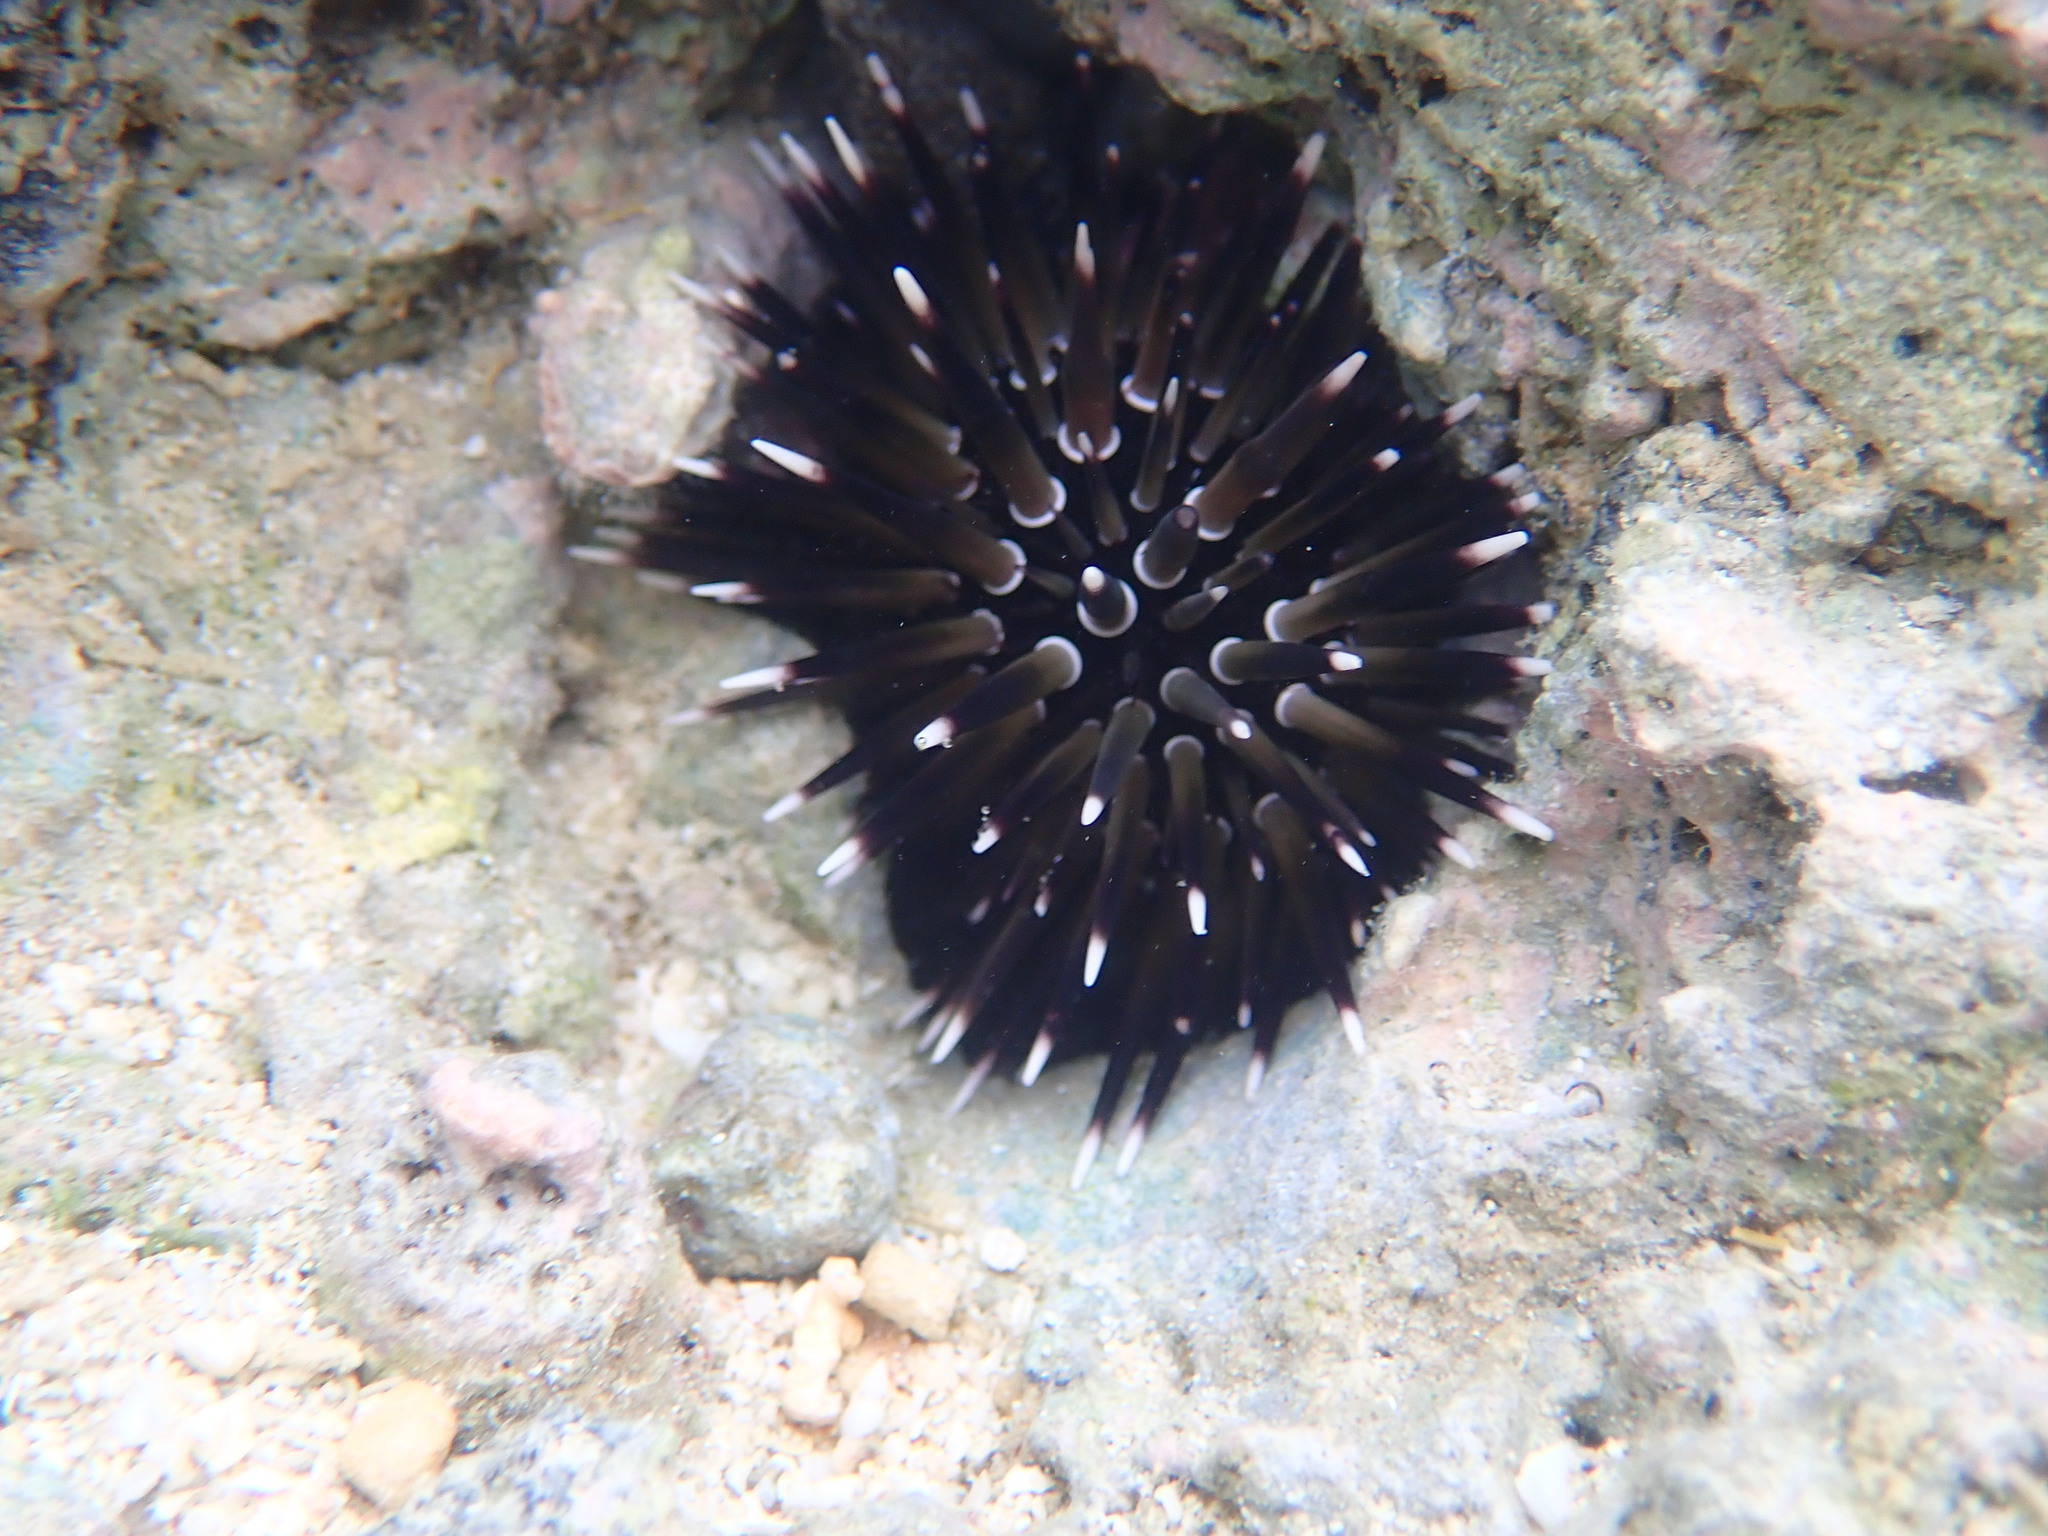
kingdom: Animalia
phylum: Echinodermata
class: Echinoidea
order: Camarodonta
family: Echinometridae
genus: Echinometra
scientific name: Echinometra mathaei
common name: Rock-boring urchin
